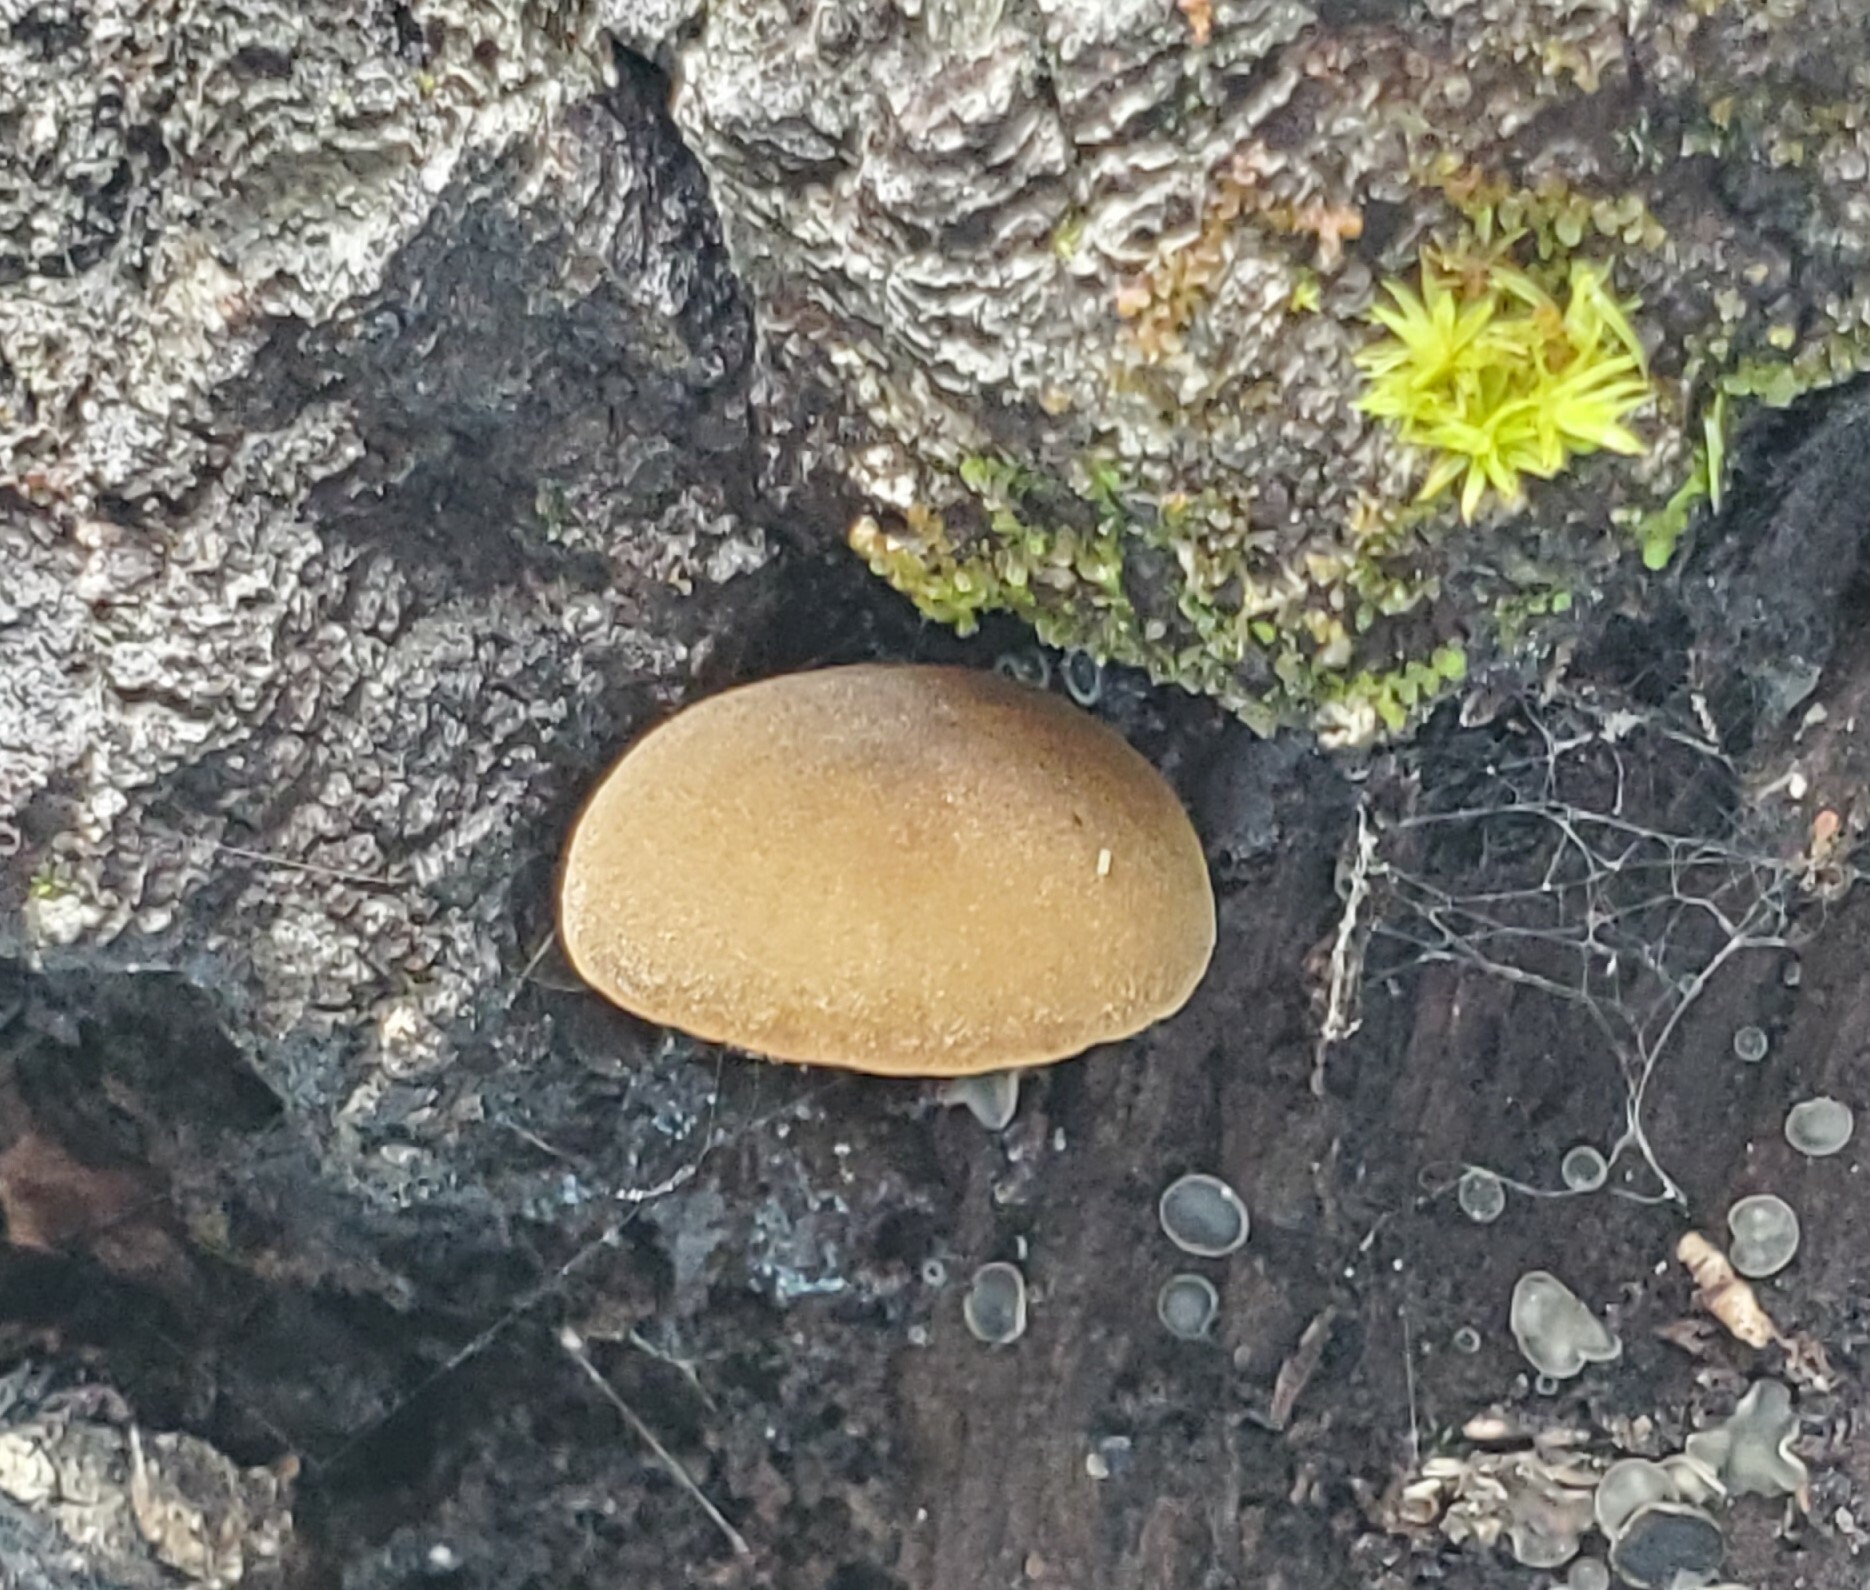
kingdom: Fungi
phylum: Basidiomycota
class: Agaricomycetes
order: Agaricales
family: Crepidotaceae
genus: Simocybe
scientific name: Simocybe centunculus
